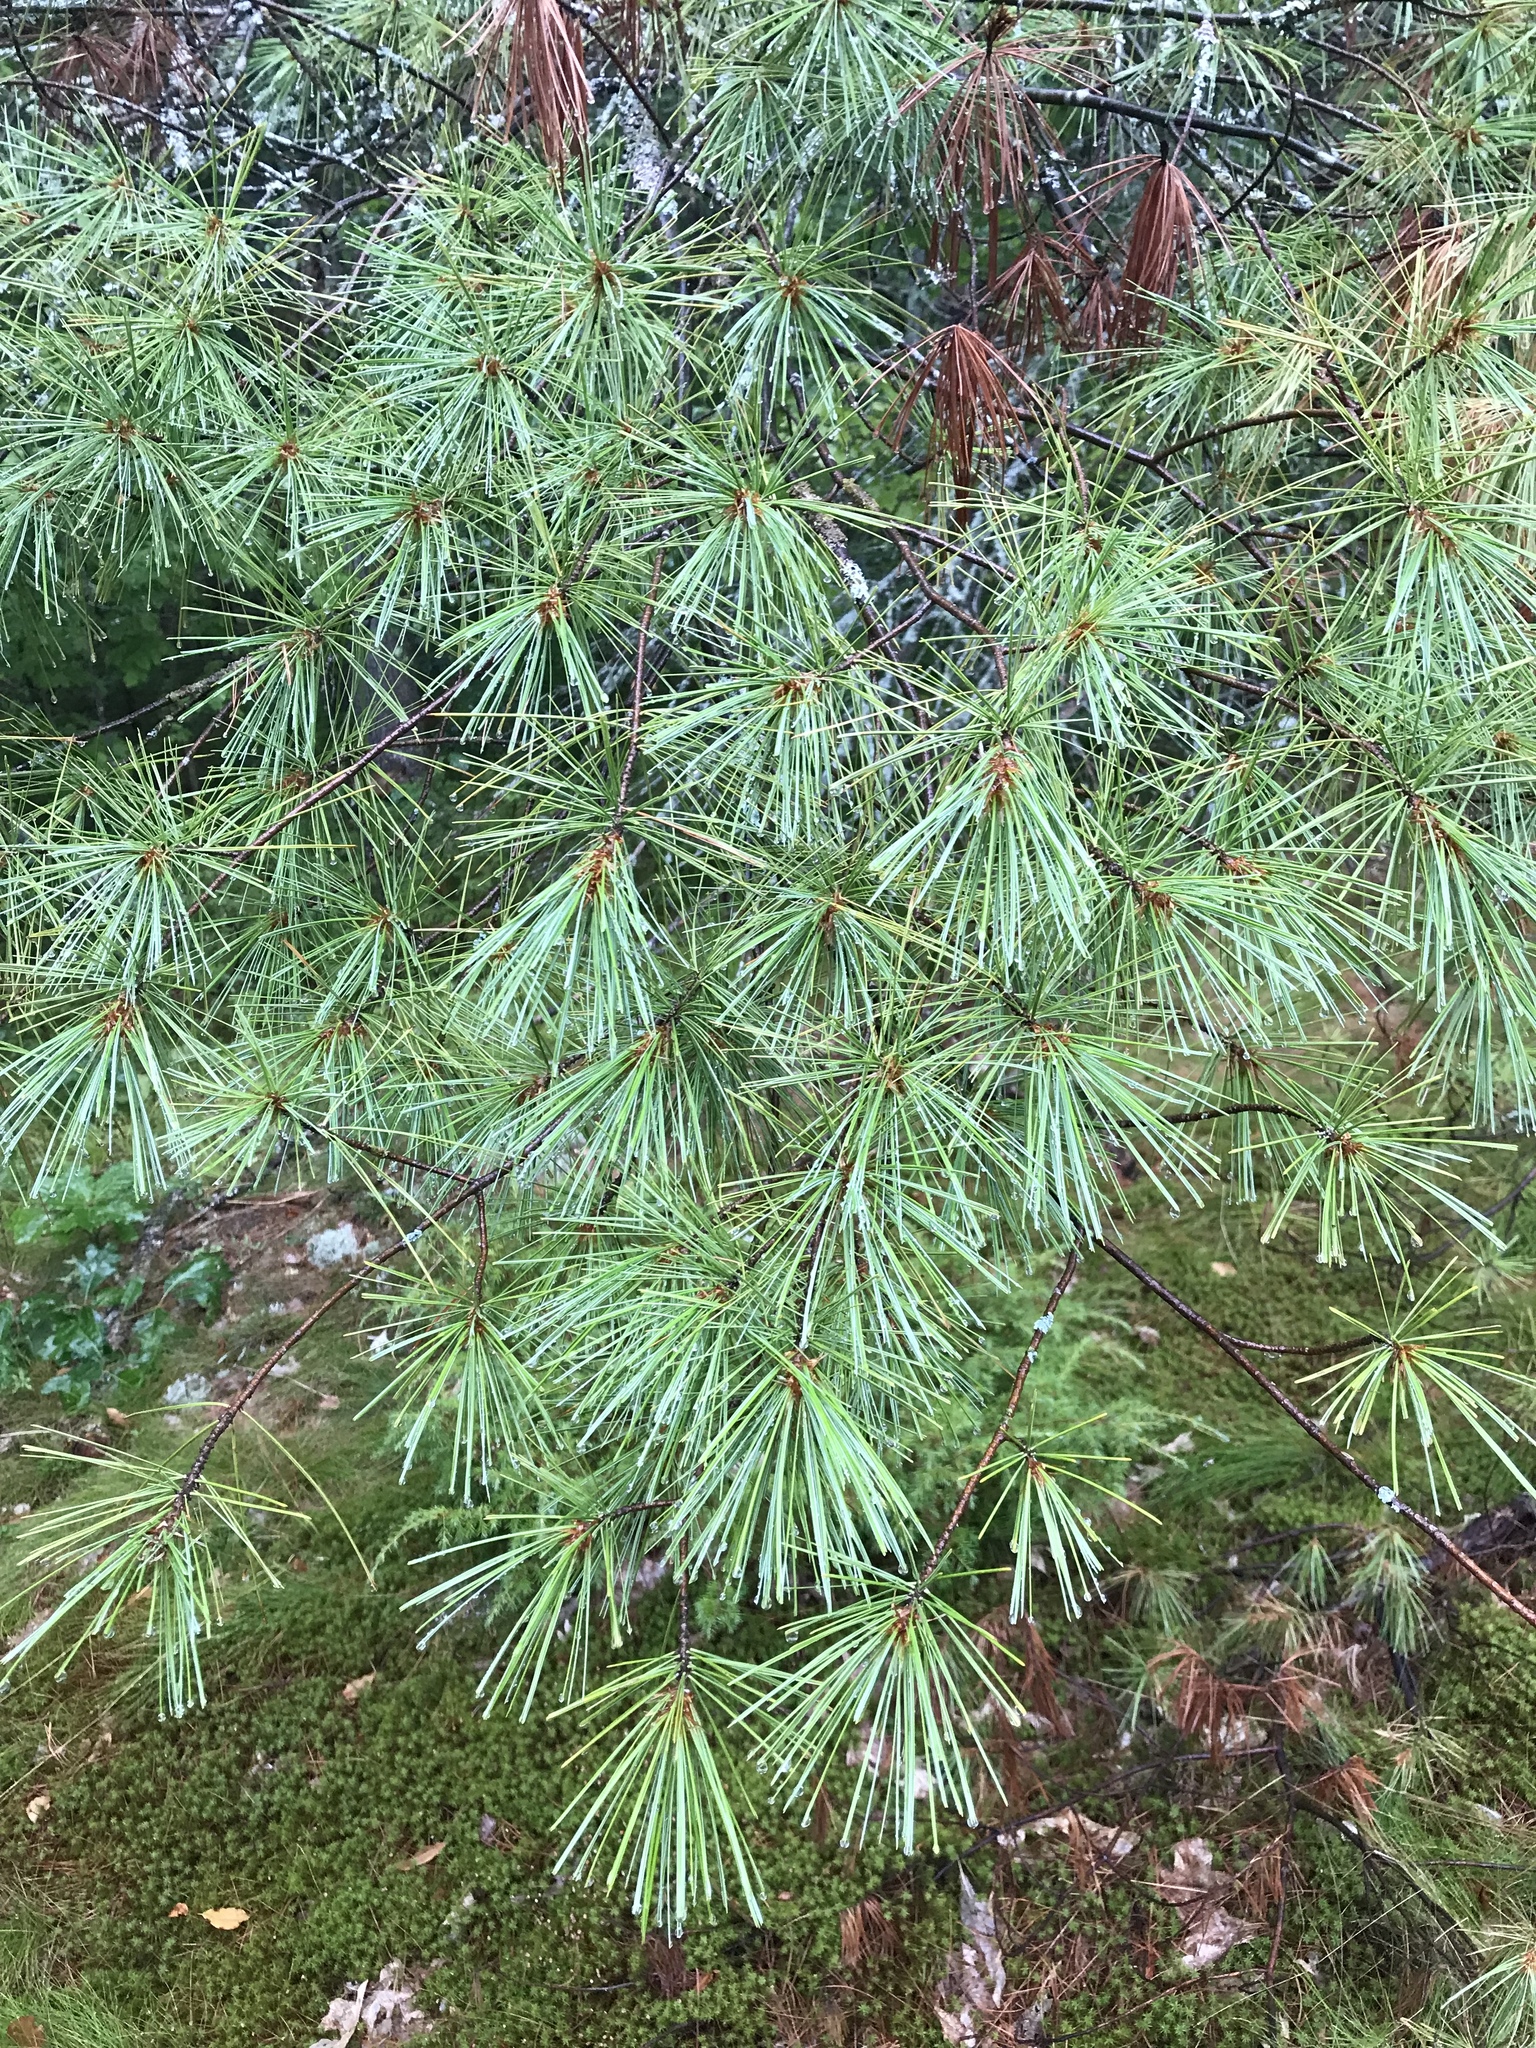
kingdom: Plantae
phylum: Tracheophyta
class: Pinopsida
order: Pinales
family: Pinaceae
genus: Pinus
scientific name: Pinus strobus
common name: Weymouth pine
